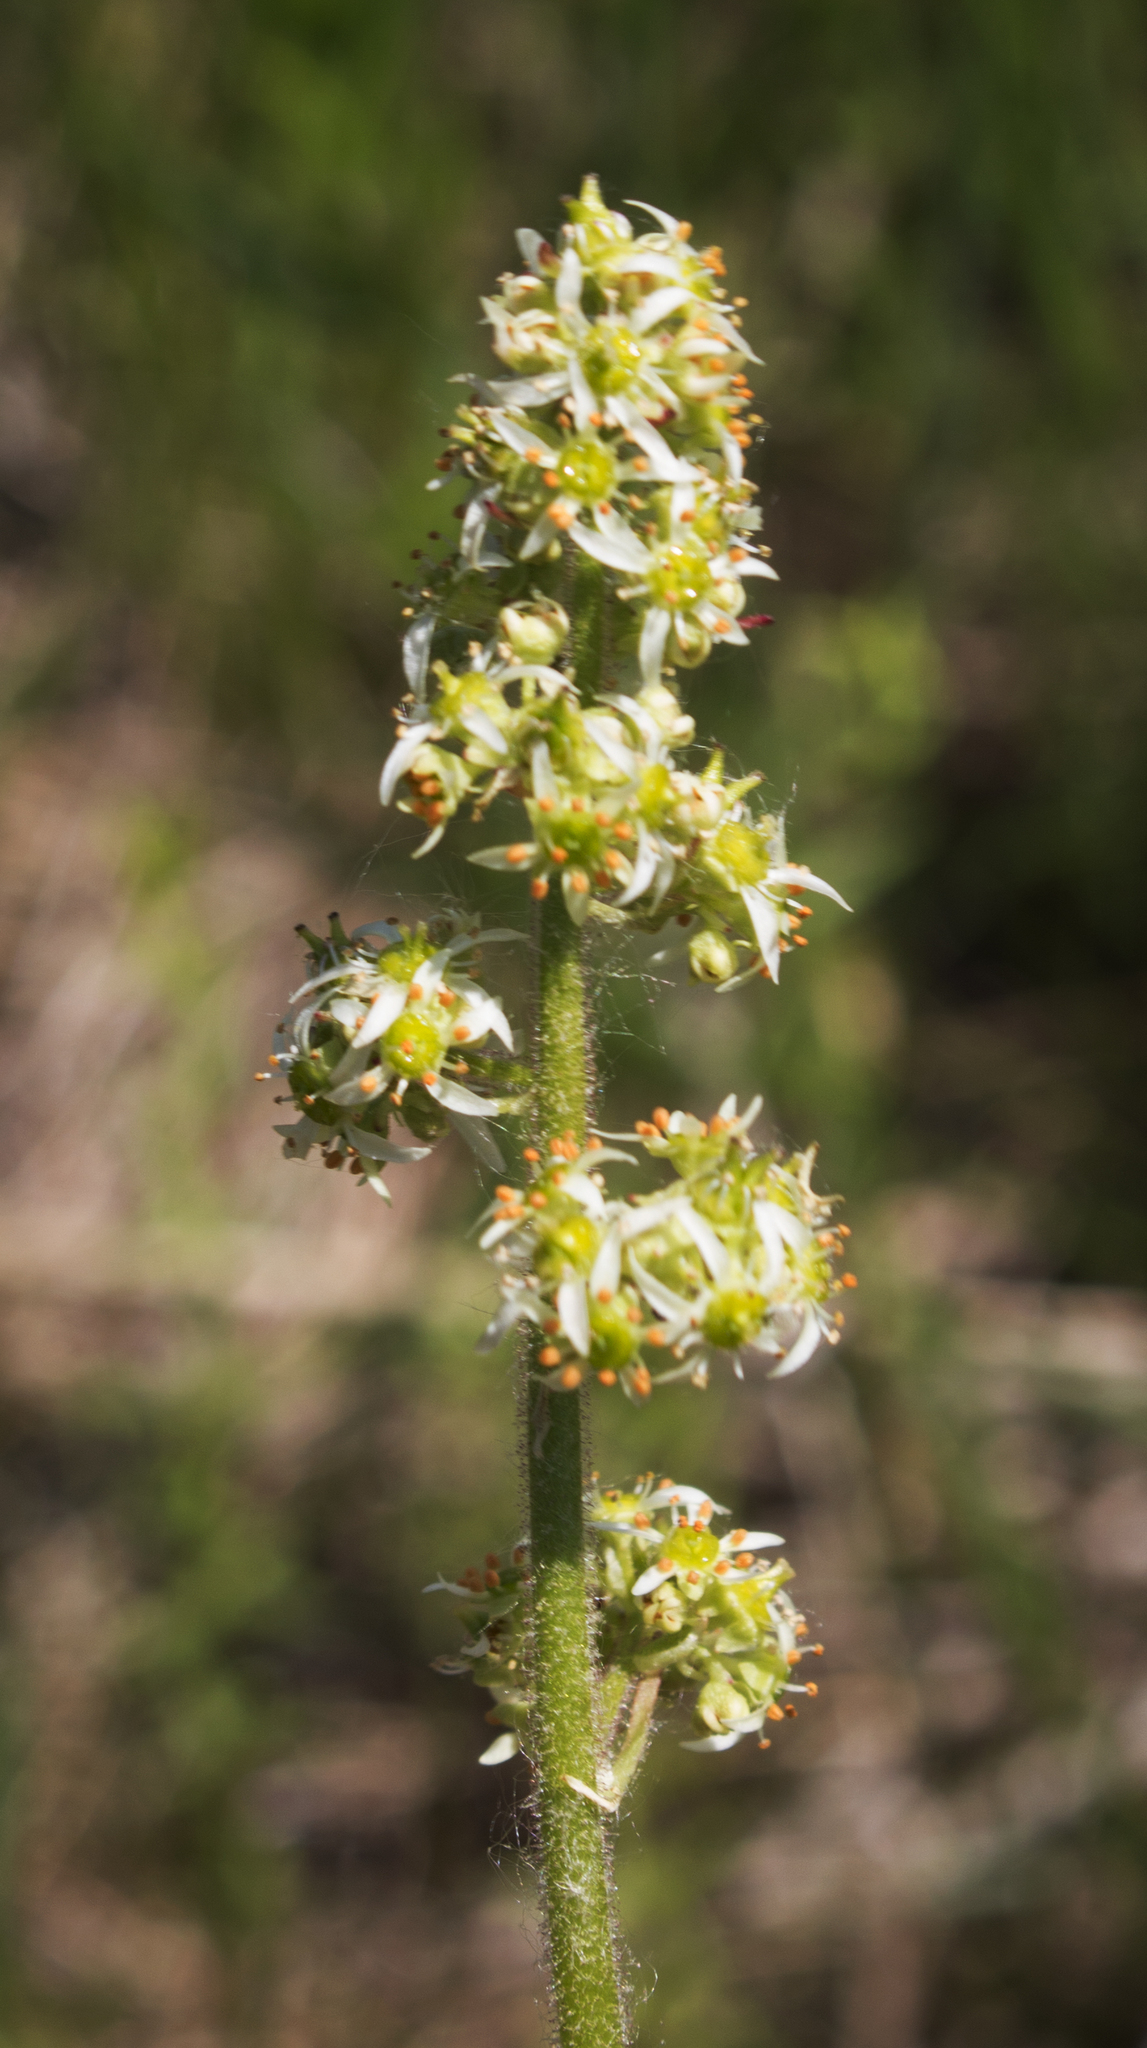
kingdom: Plantae
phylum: Tracheophyta
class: Magnoliopsida
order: Saxifragales
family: Saxifragaceae
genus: Micranthes
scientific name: Micranthes pensylvanica
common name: Marsh saxifrage
